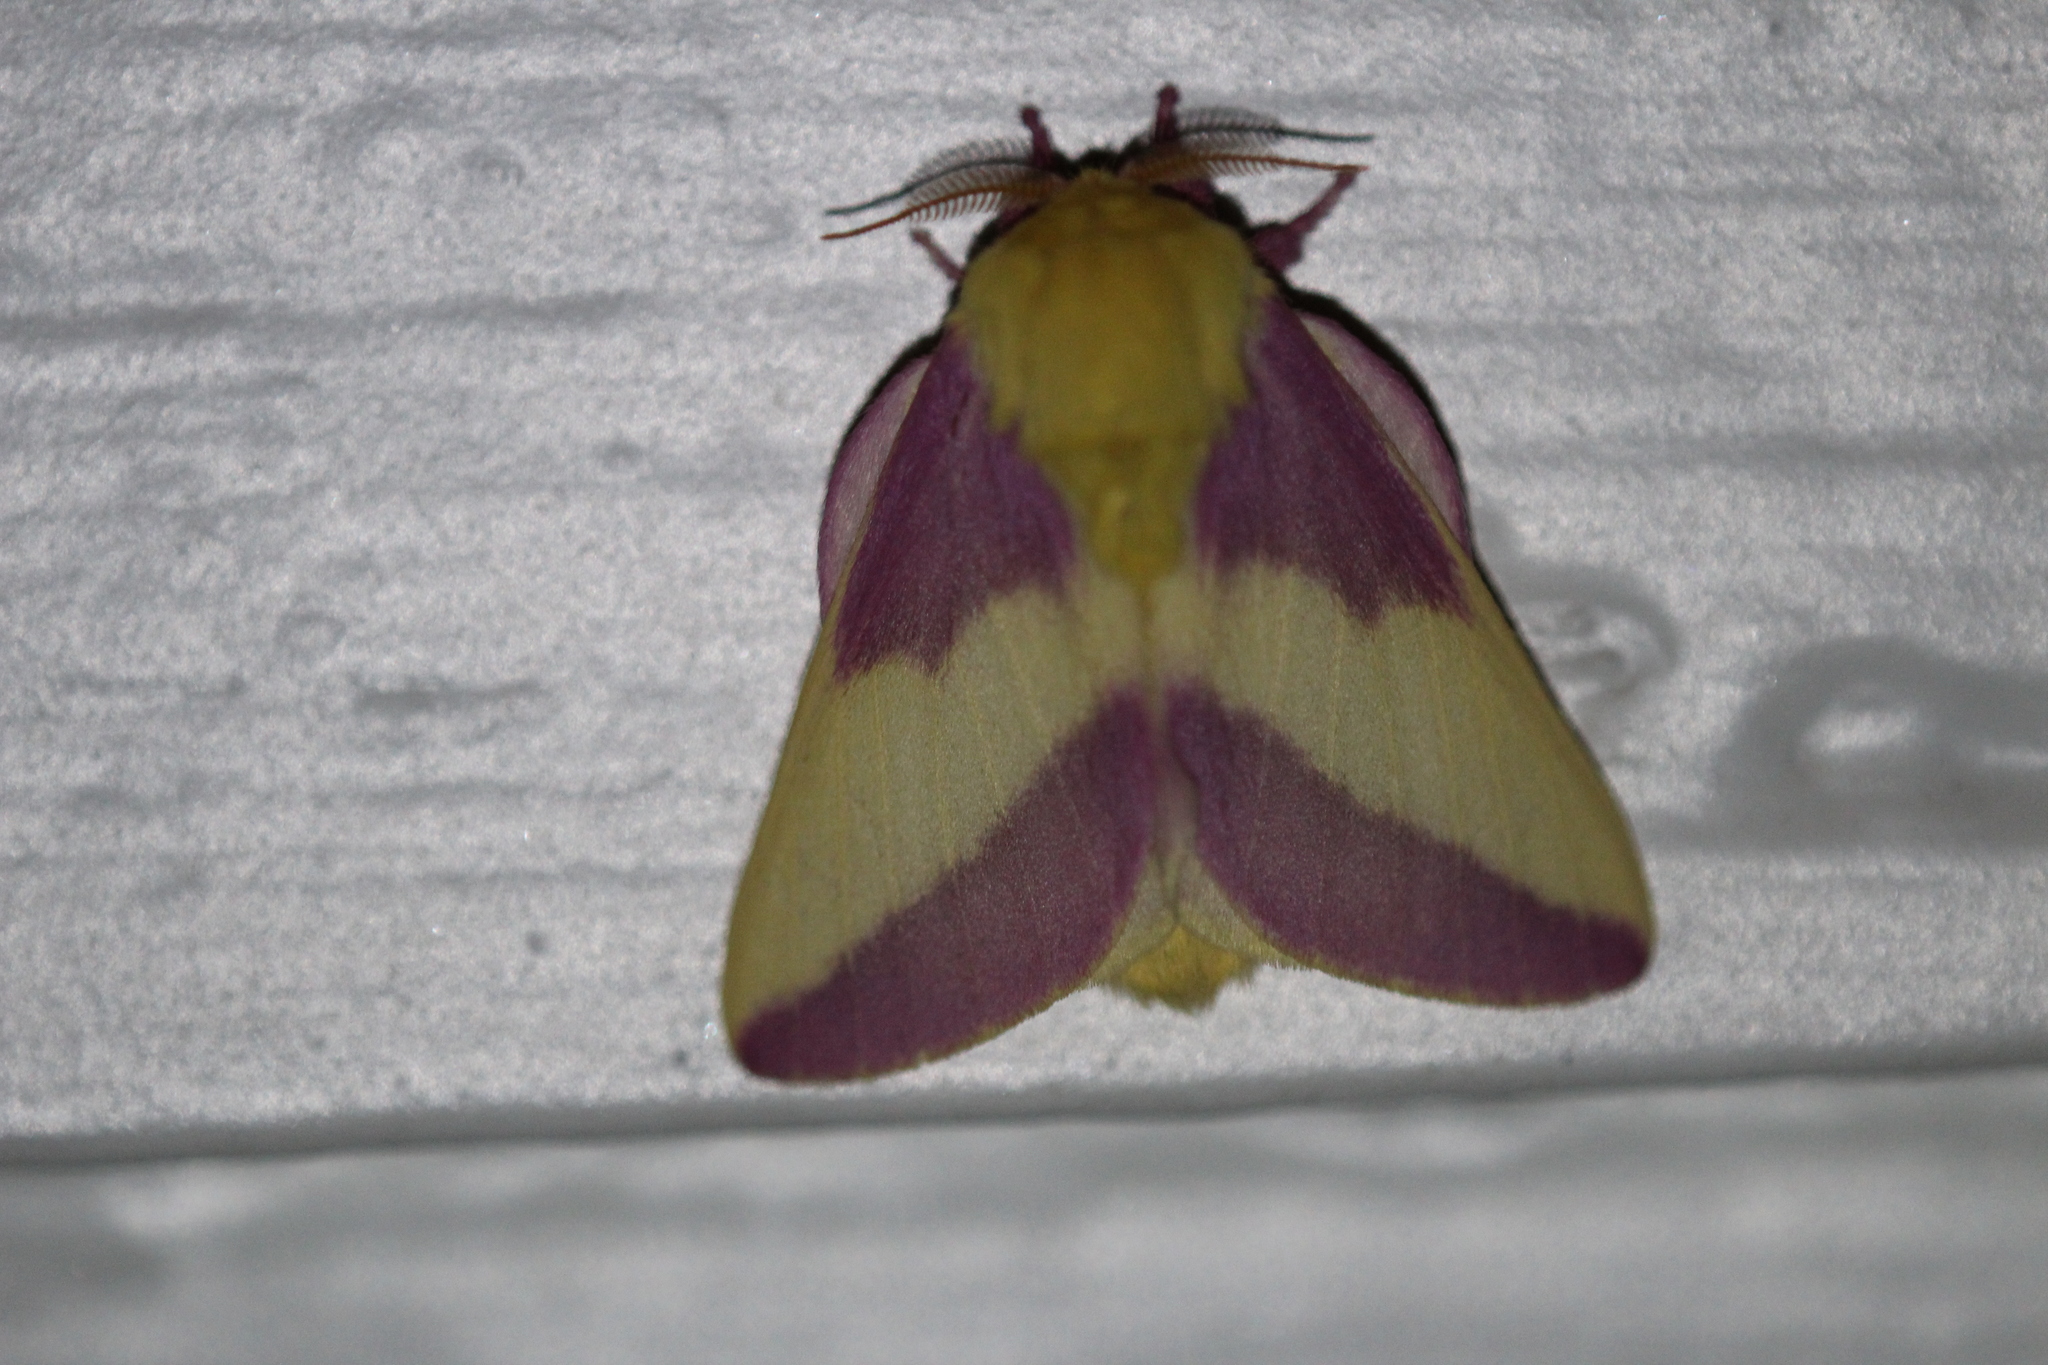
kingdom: Animalia
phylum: Arthropoda
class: Insecta
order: Lepidoptera
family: Saturniidae
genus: Dryocampa
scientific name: Dryocampa rubicunda
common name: Rosy maple moth
